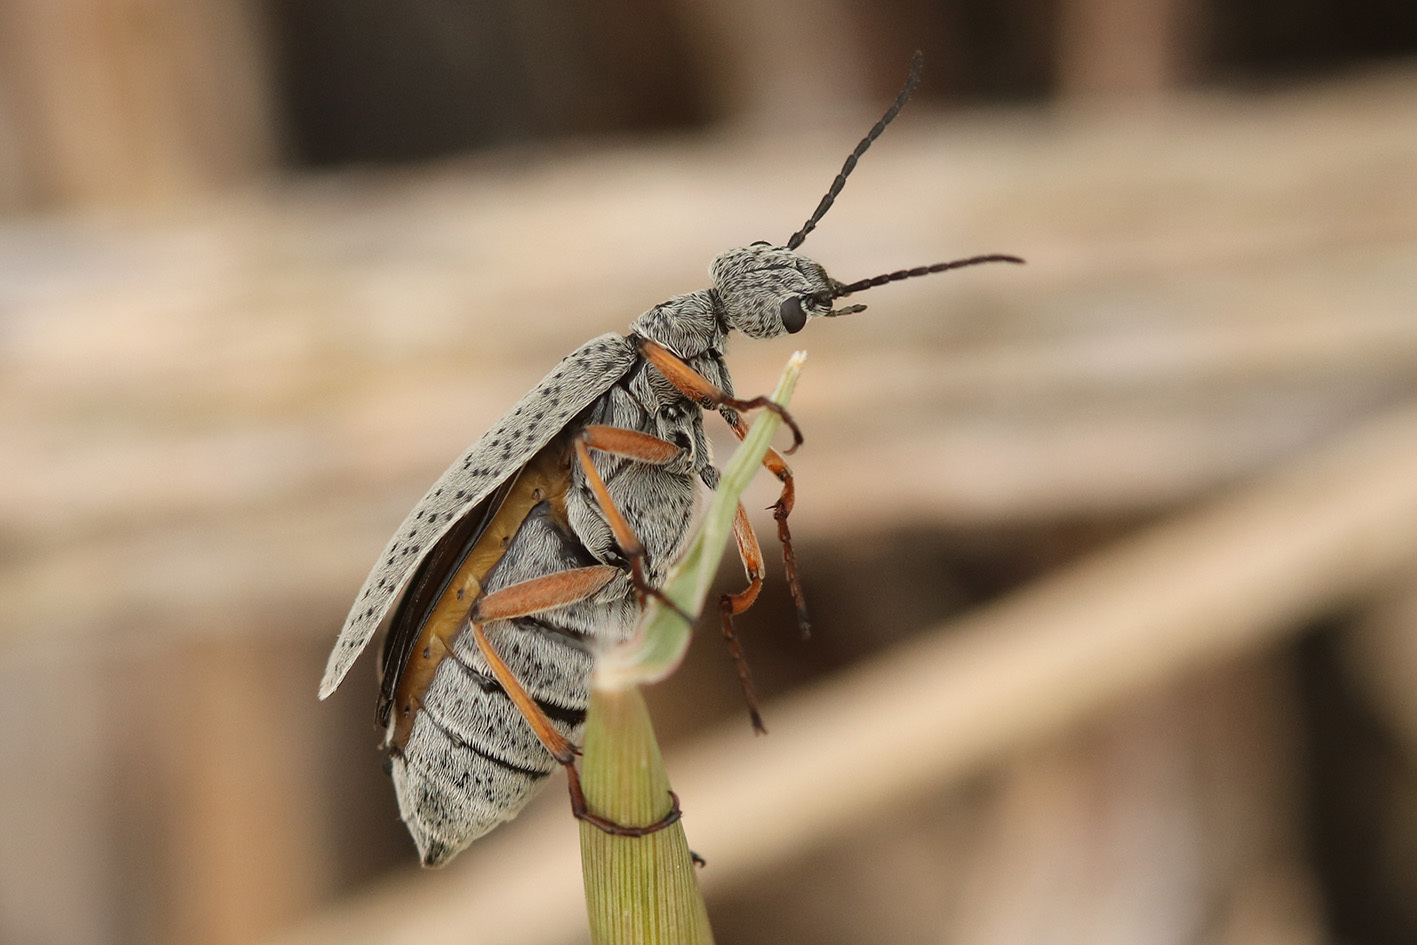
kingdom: Animalia
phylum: Arthropoda
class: Insecta
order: Coleoptera
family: Meloidae
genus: Epicauta
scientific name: Epicauta
